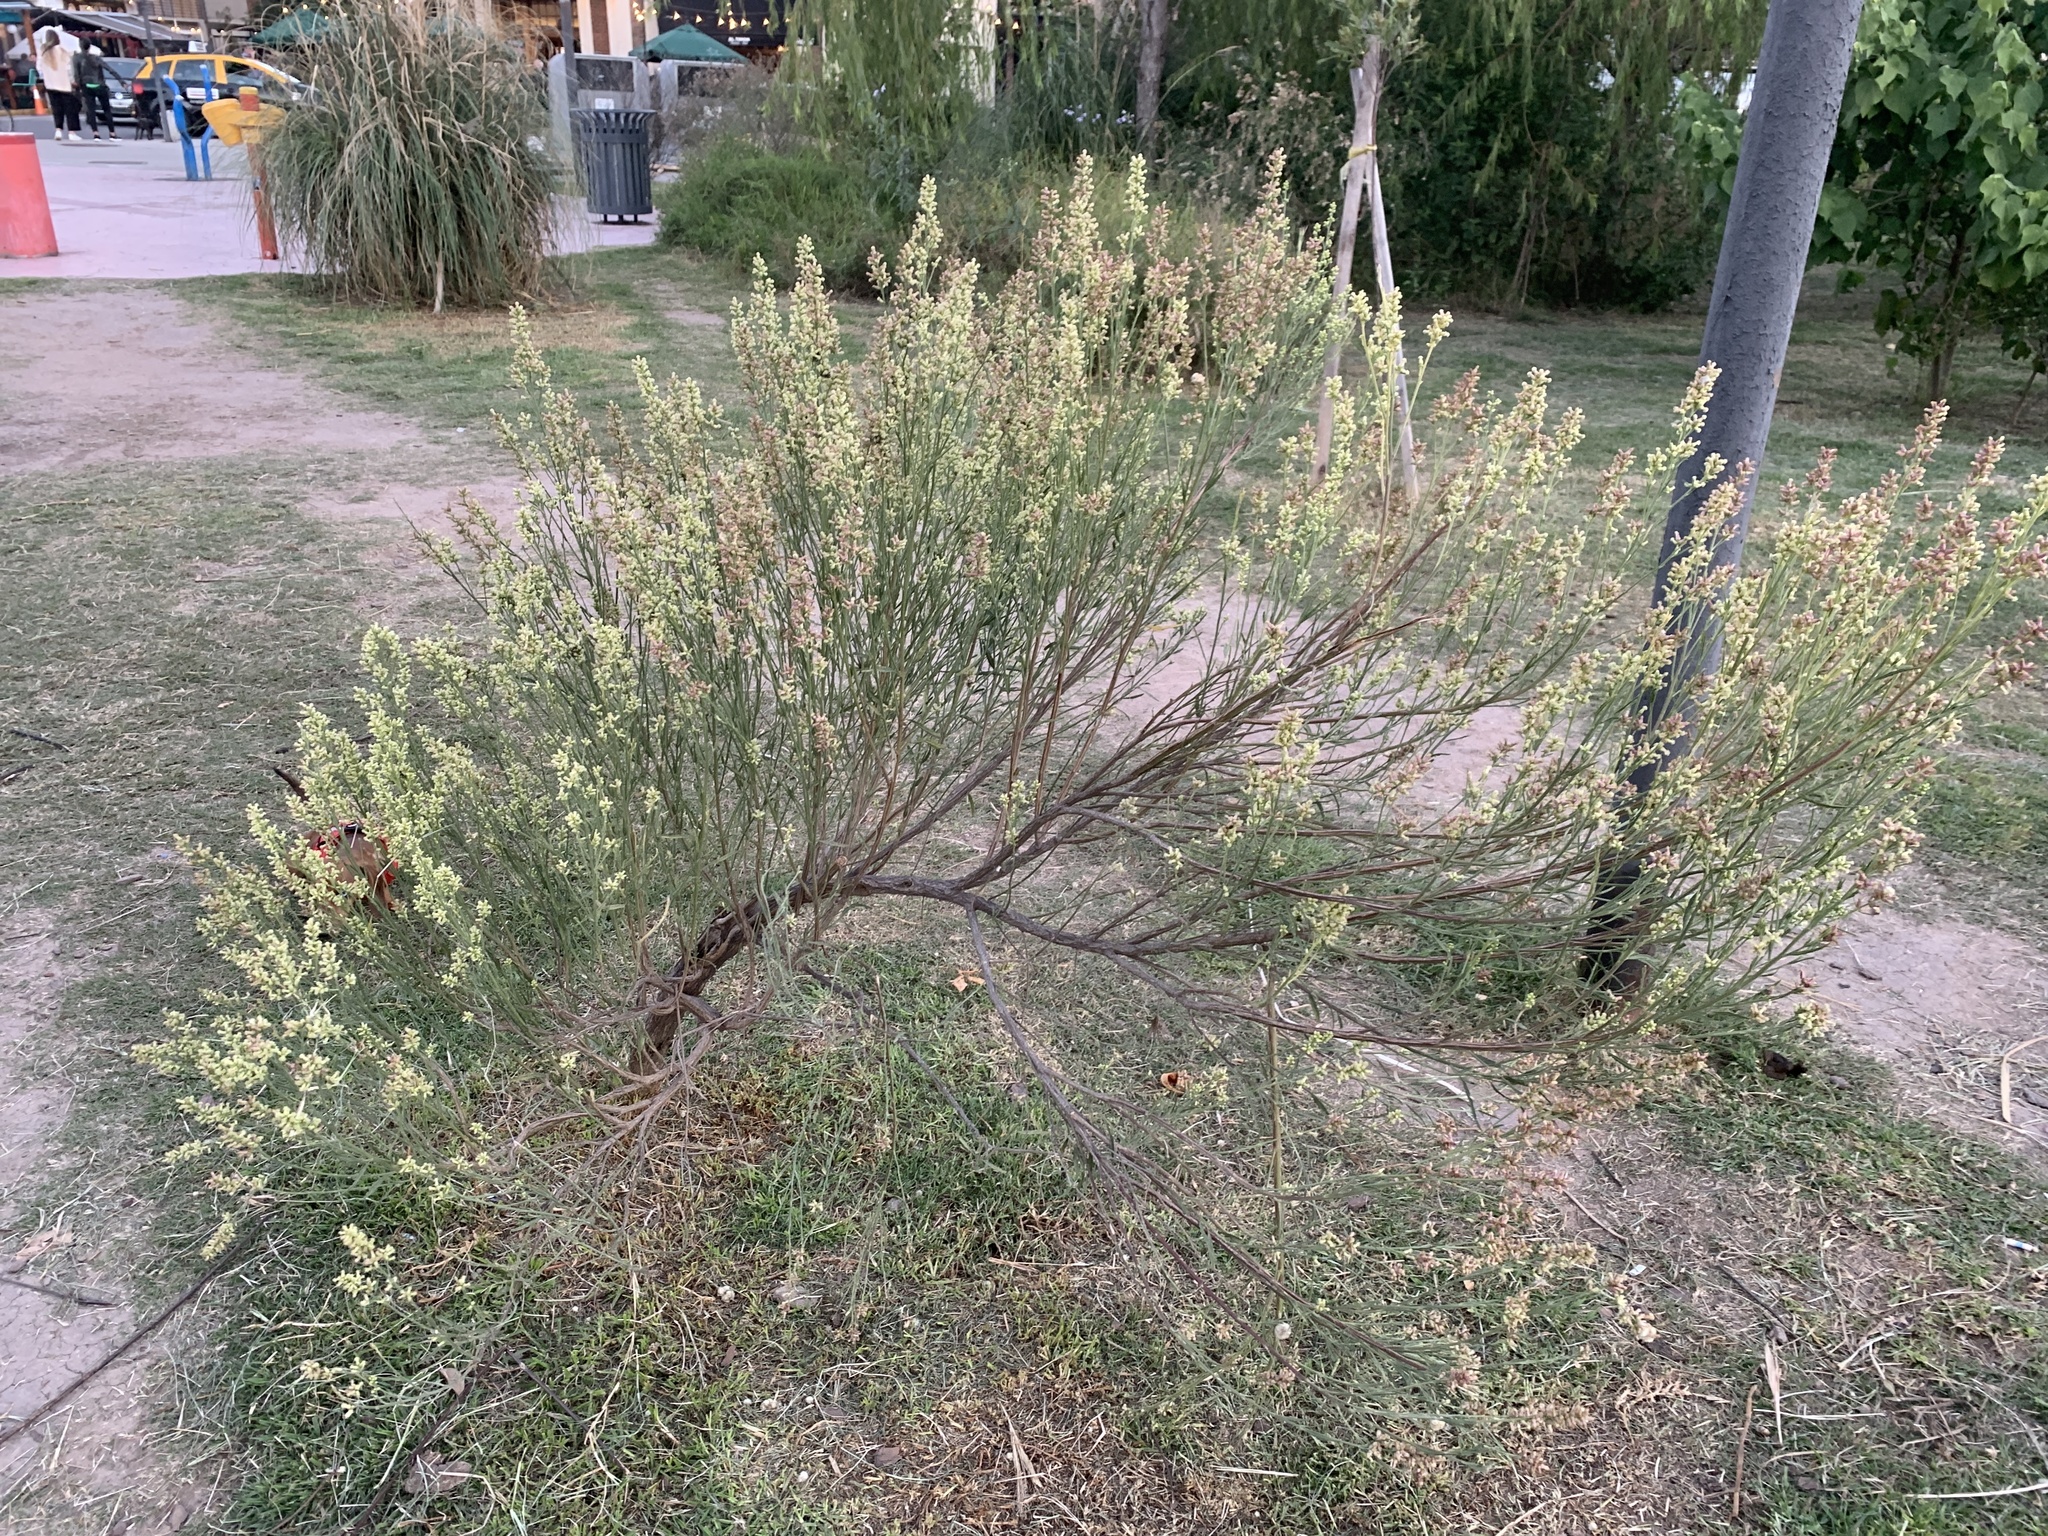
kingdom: Plantae
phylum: Tracheophyta
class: Magnoliopsida
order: Asterales
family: Asteraceae
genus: Baccharis
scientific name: Baccharis spicata
